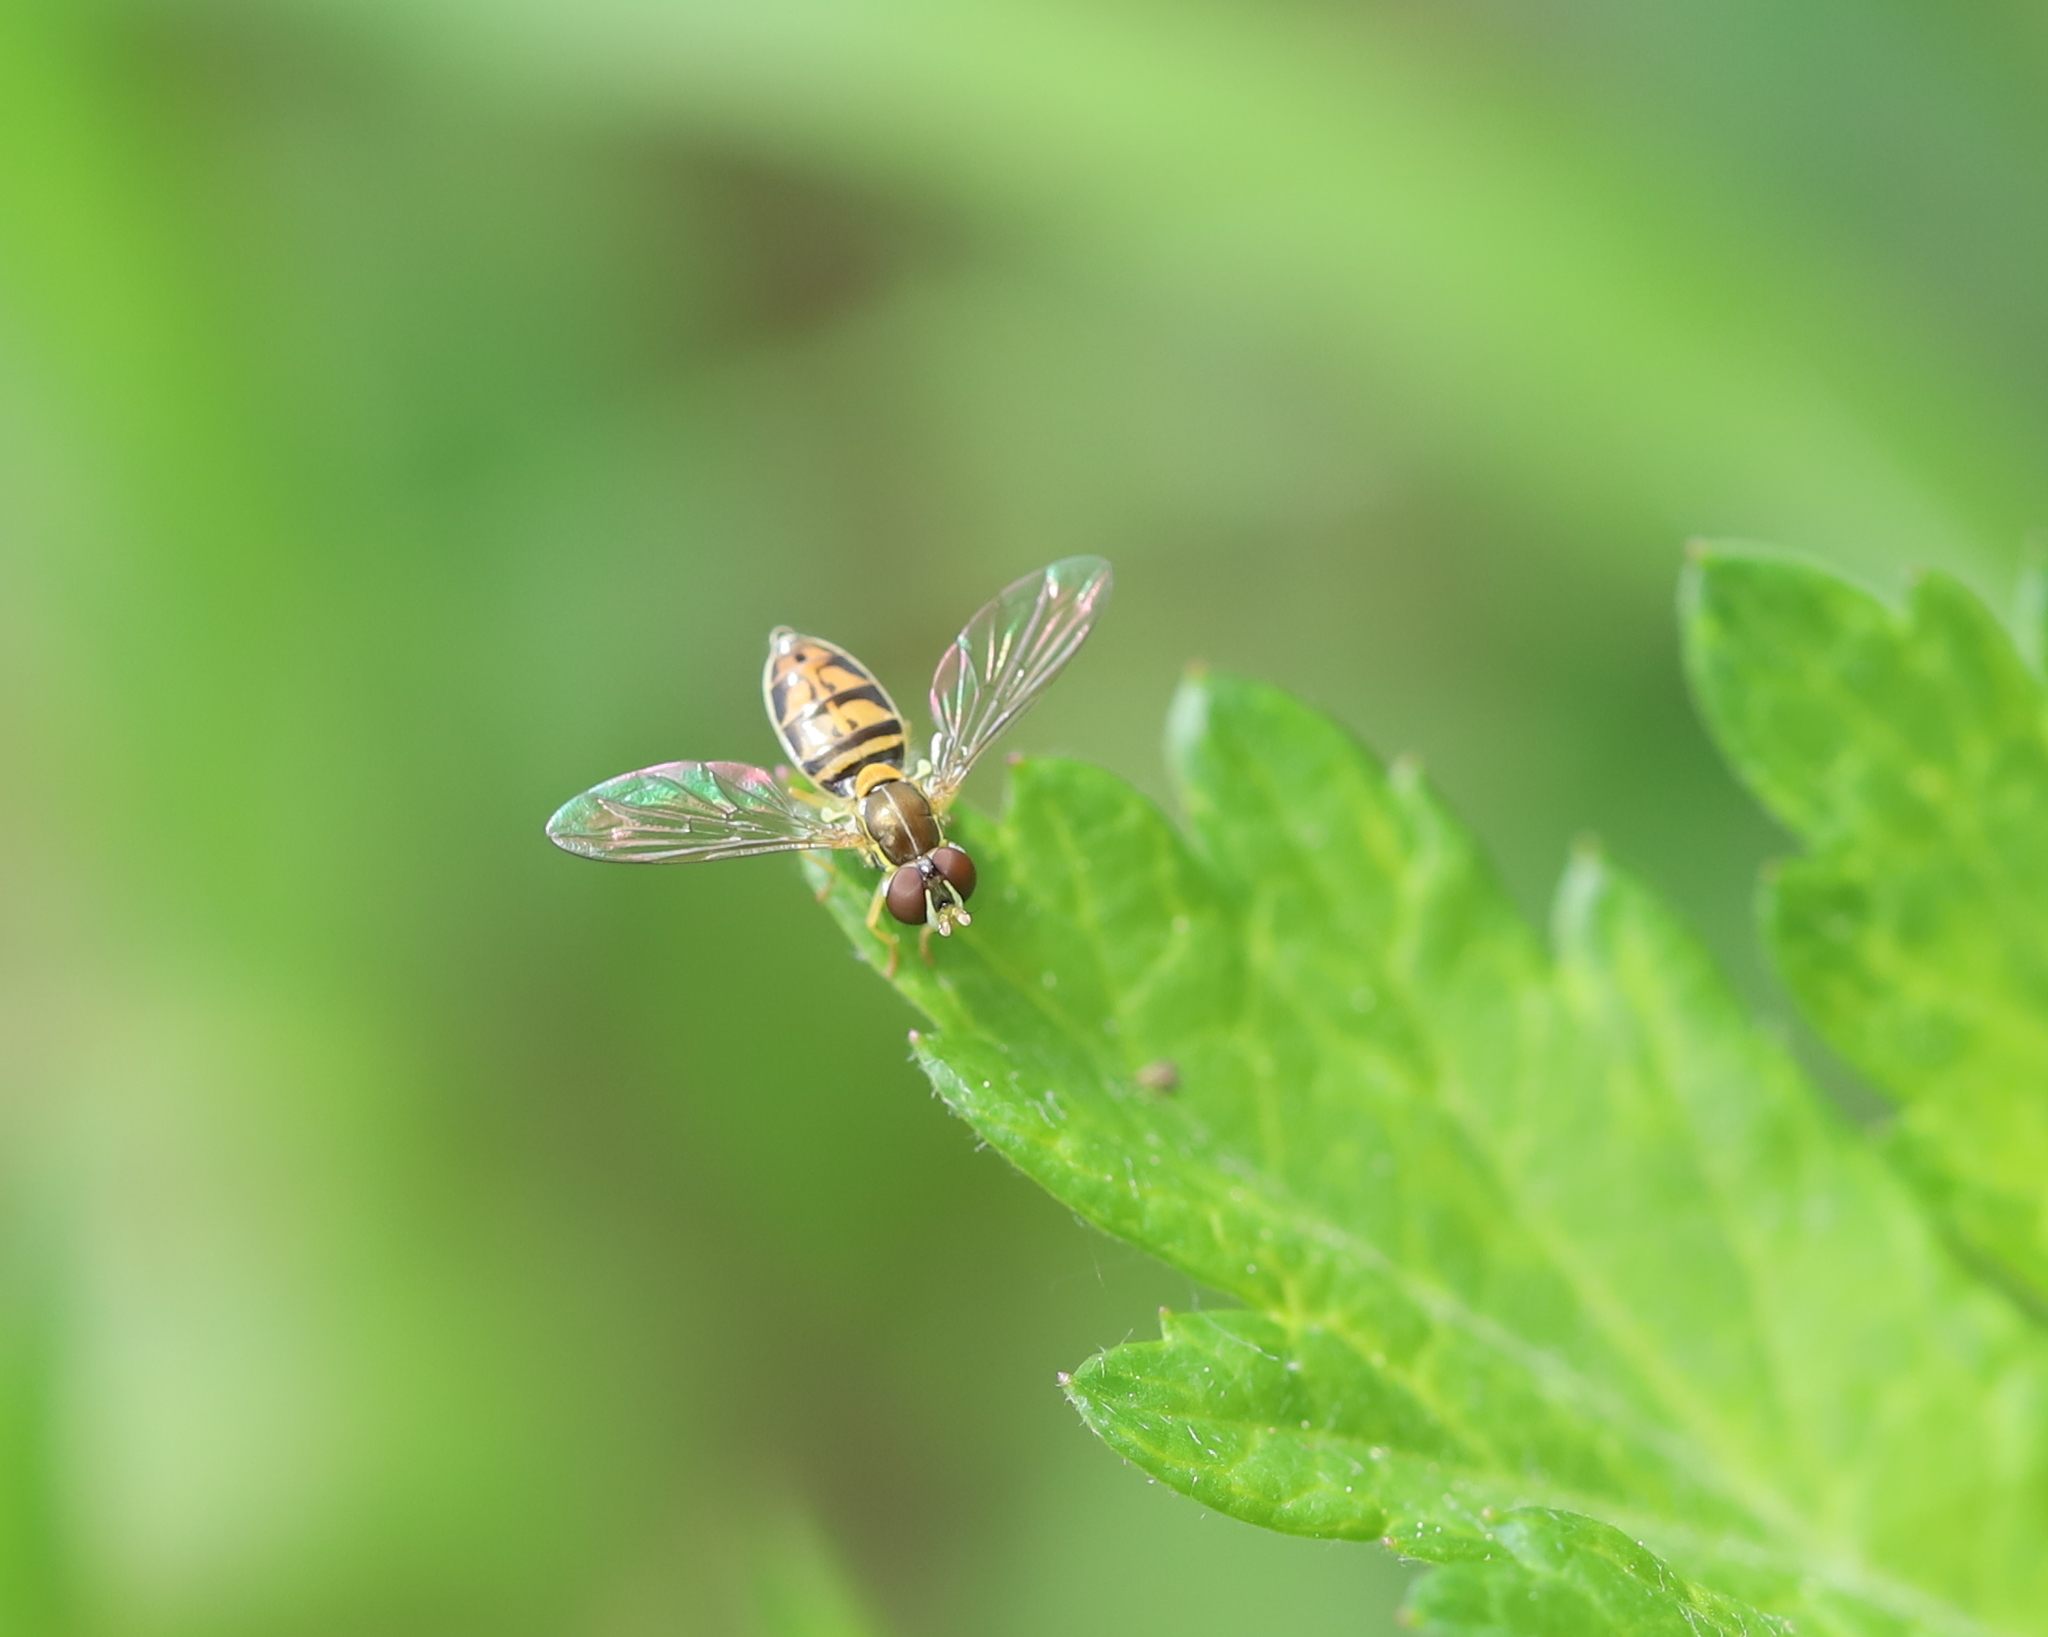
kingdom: Animalia
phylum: Arthropoda
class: Insecta
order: Diptera
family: Syrphidae
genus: Toxomerus
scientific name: Toxomerus marginatus
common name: Syrphid fly
